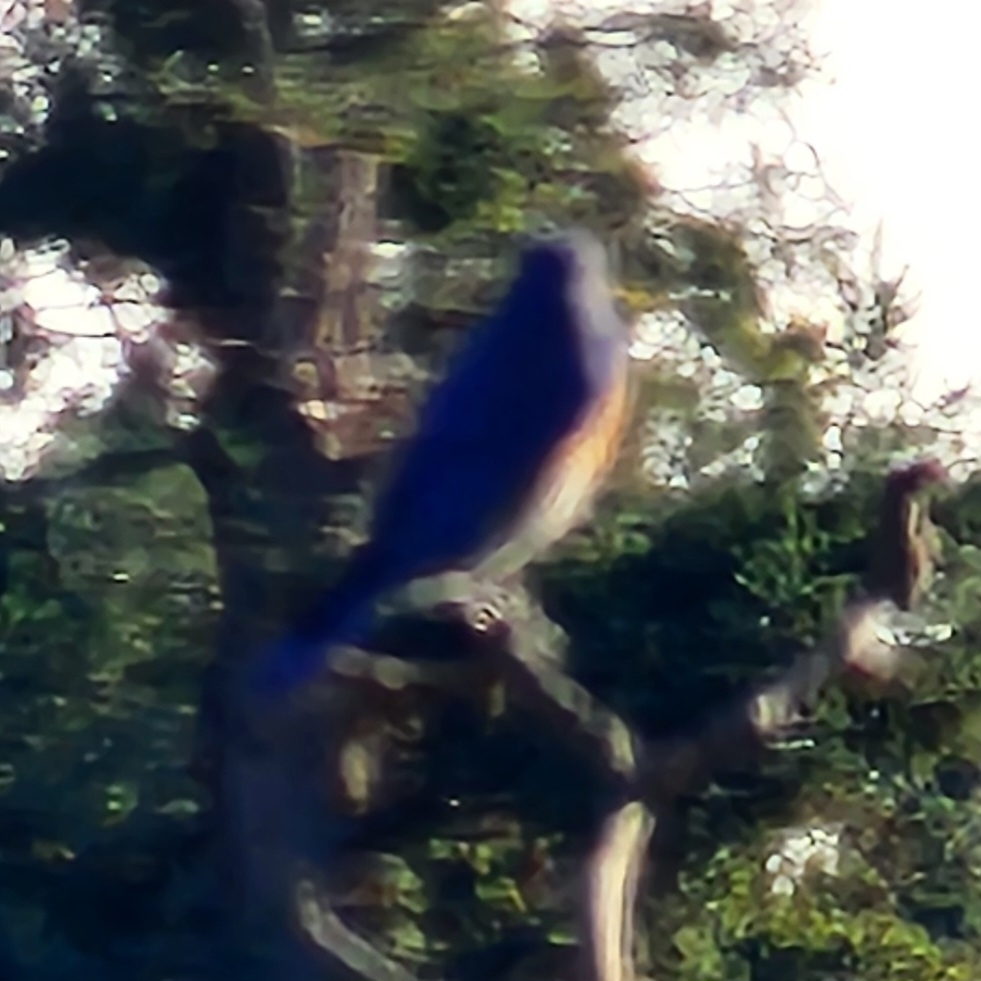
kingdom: Animalia
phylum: Chordata
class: Aves
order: Passeriformes
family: Turdidae
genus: Sialia
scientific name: Sialia mexicana
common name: Western bluebird
